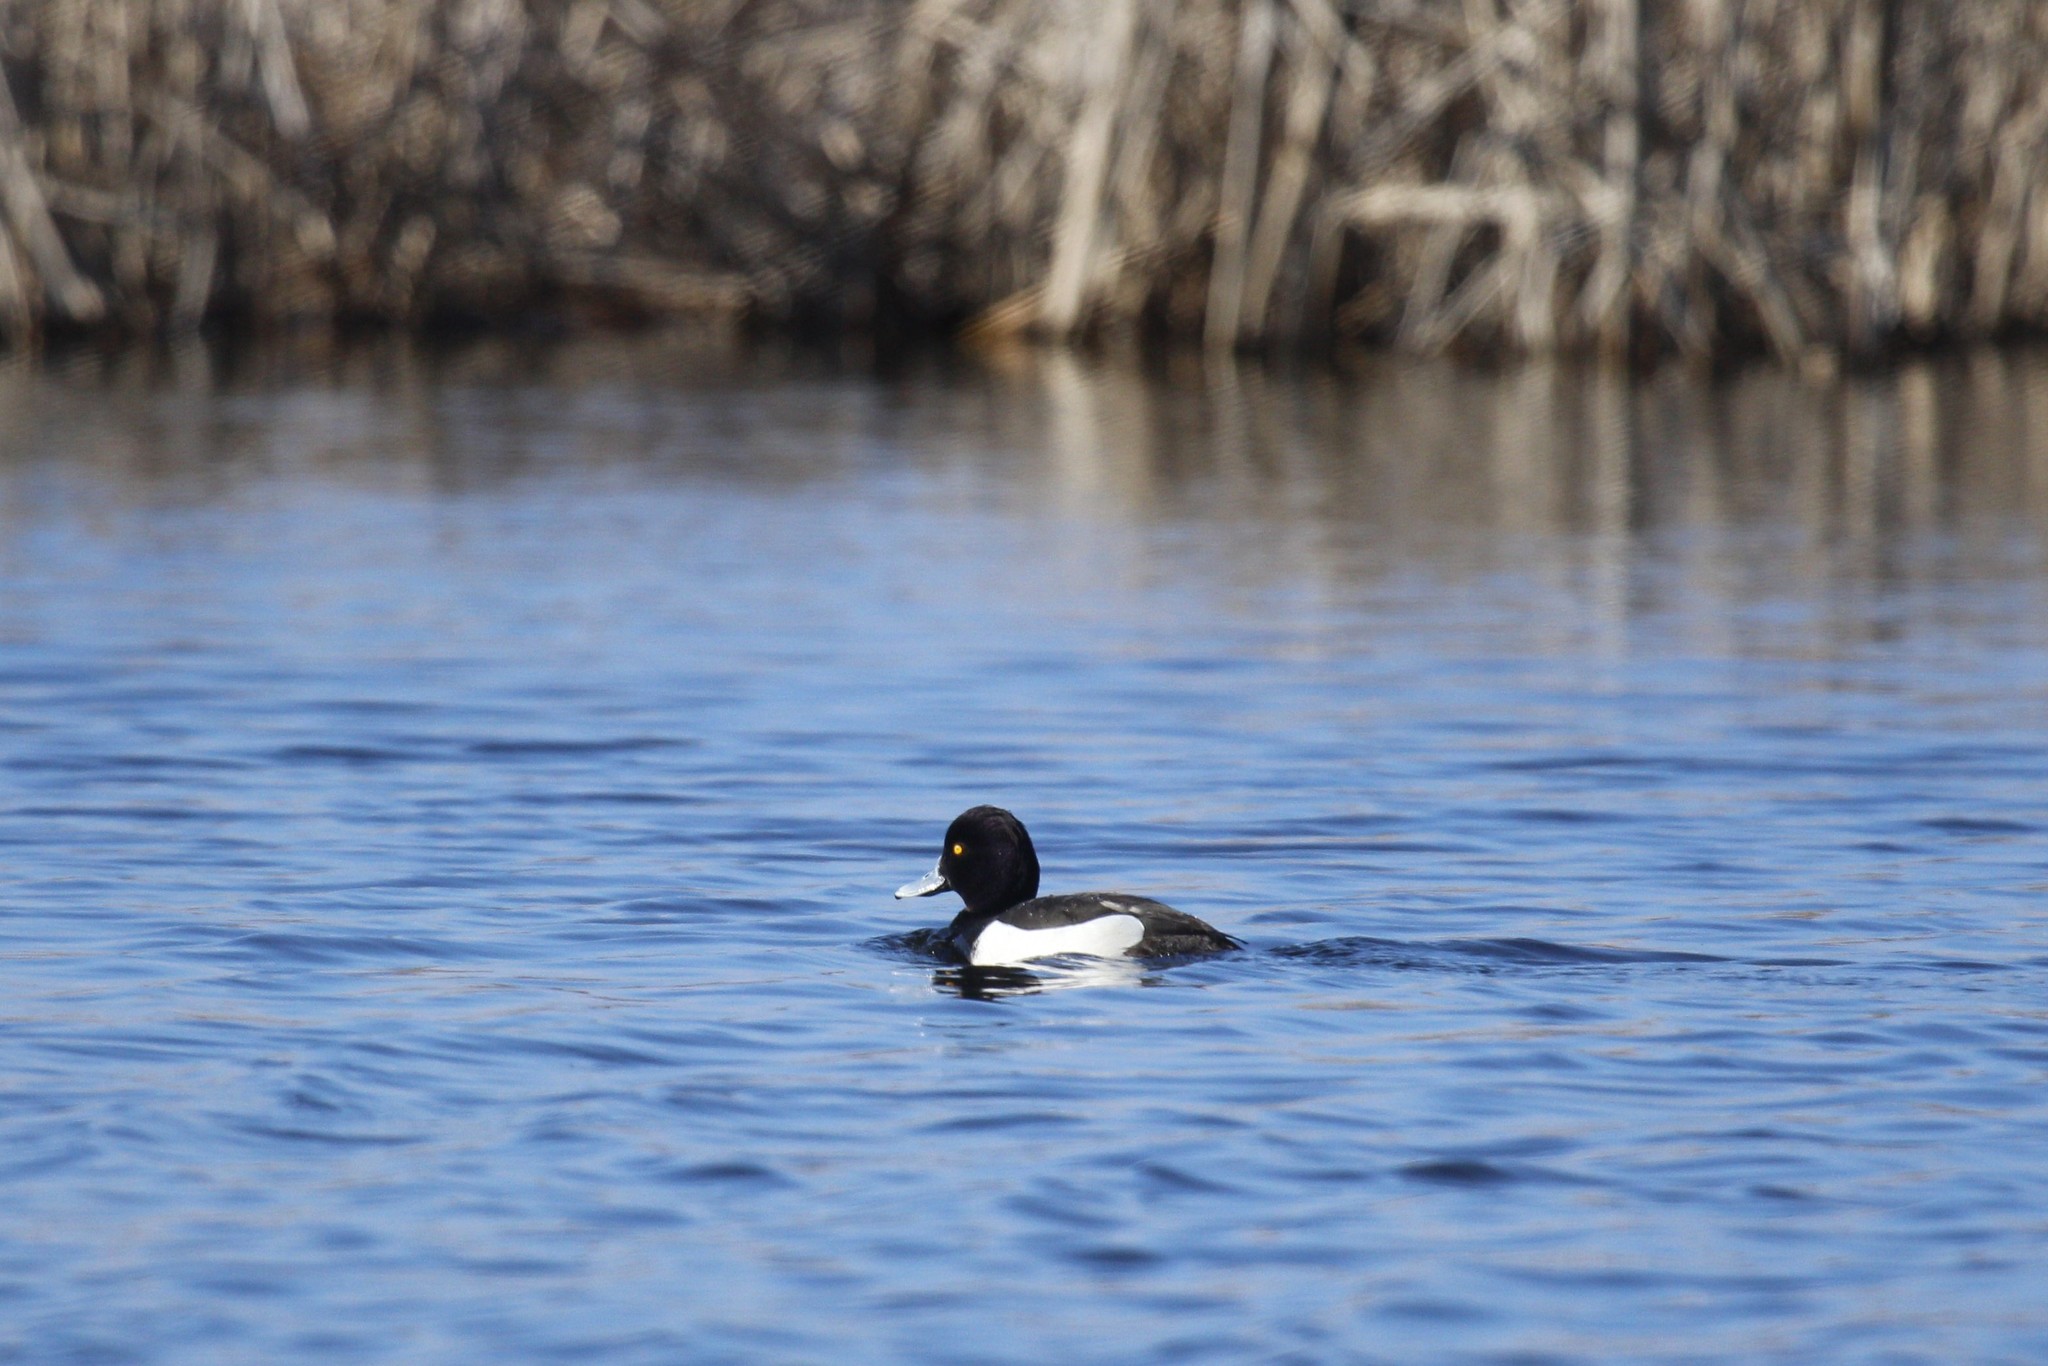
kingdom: Animalia
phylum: Chordata
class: Aves
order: Anseriformes
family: Anatidae
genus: Aythya
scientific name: Aythya fuligula
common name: Tufted duck
